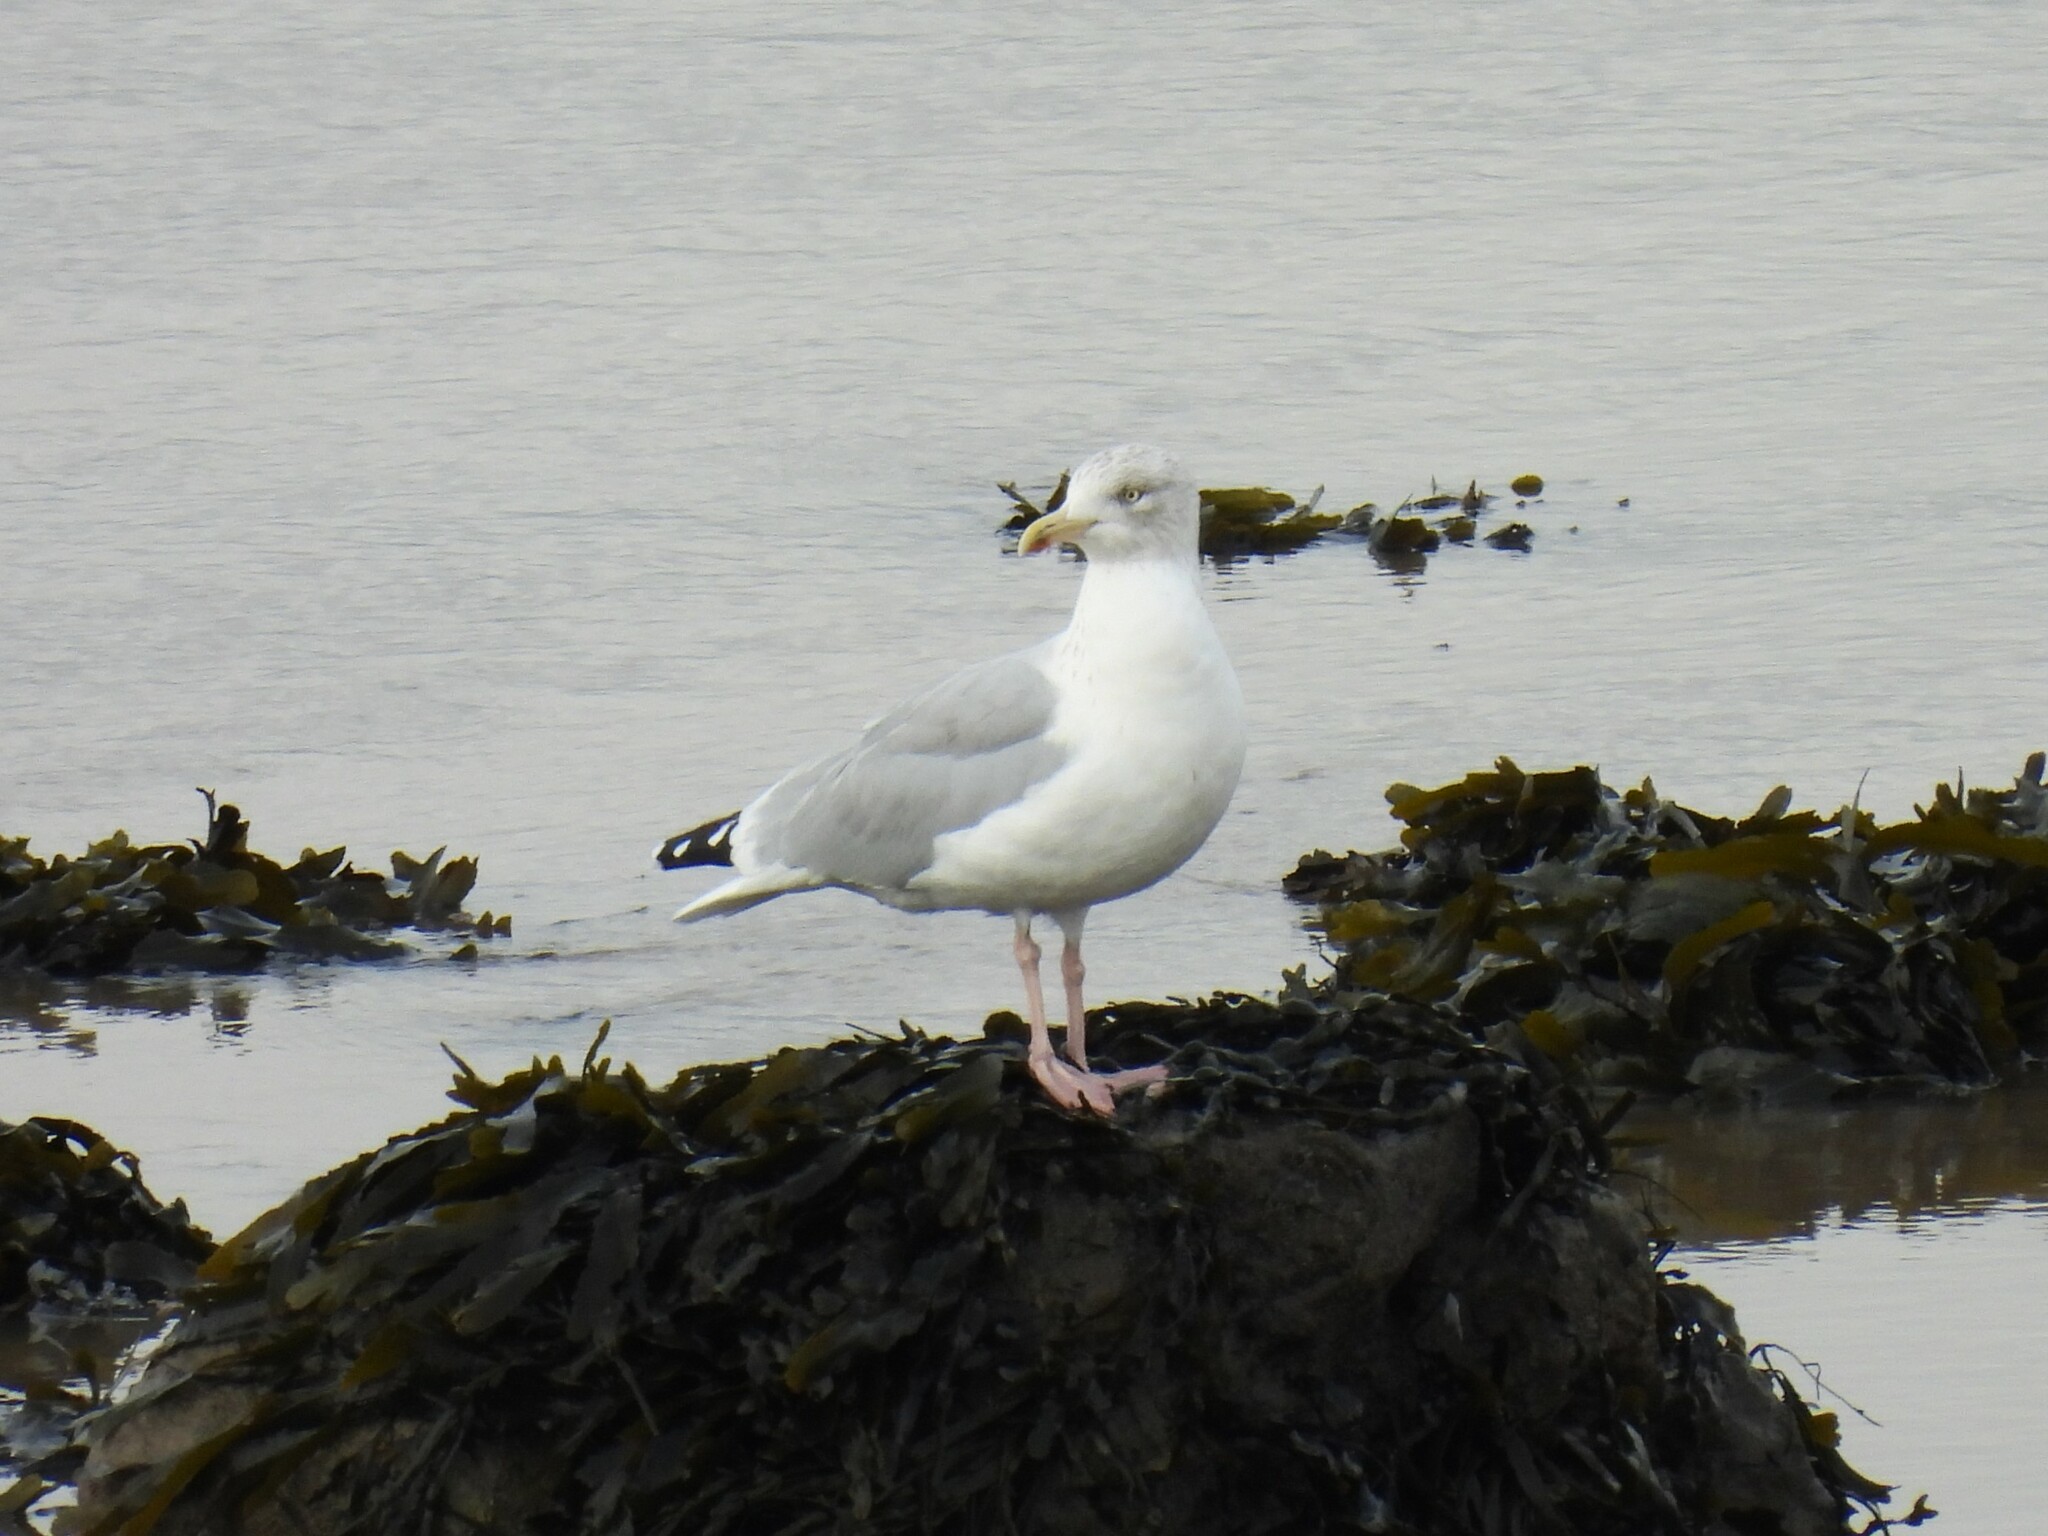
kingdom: Animalia
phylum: Chordata
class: Aves
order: Charadriiformes
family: Laridae
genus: Larus
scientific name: Larus argentatus
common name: Herring gull
